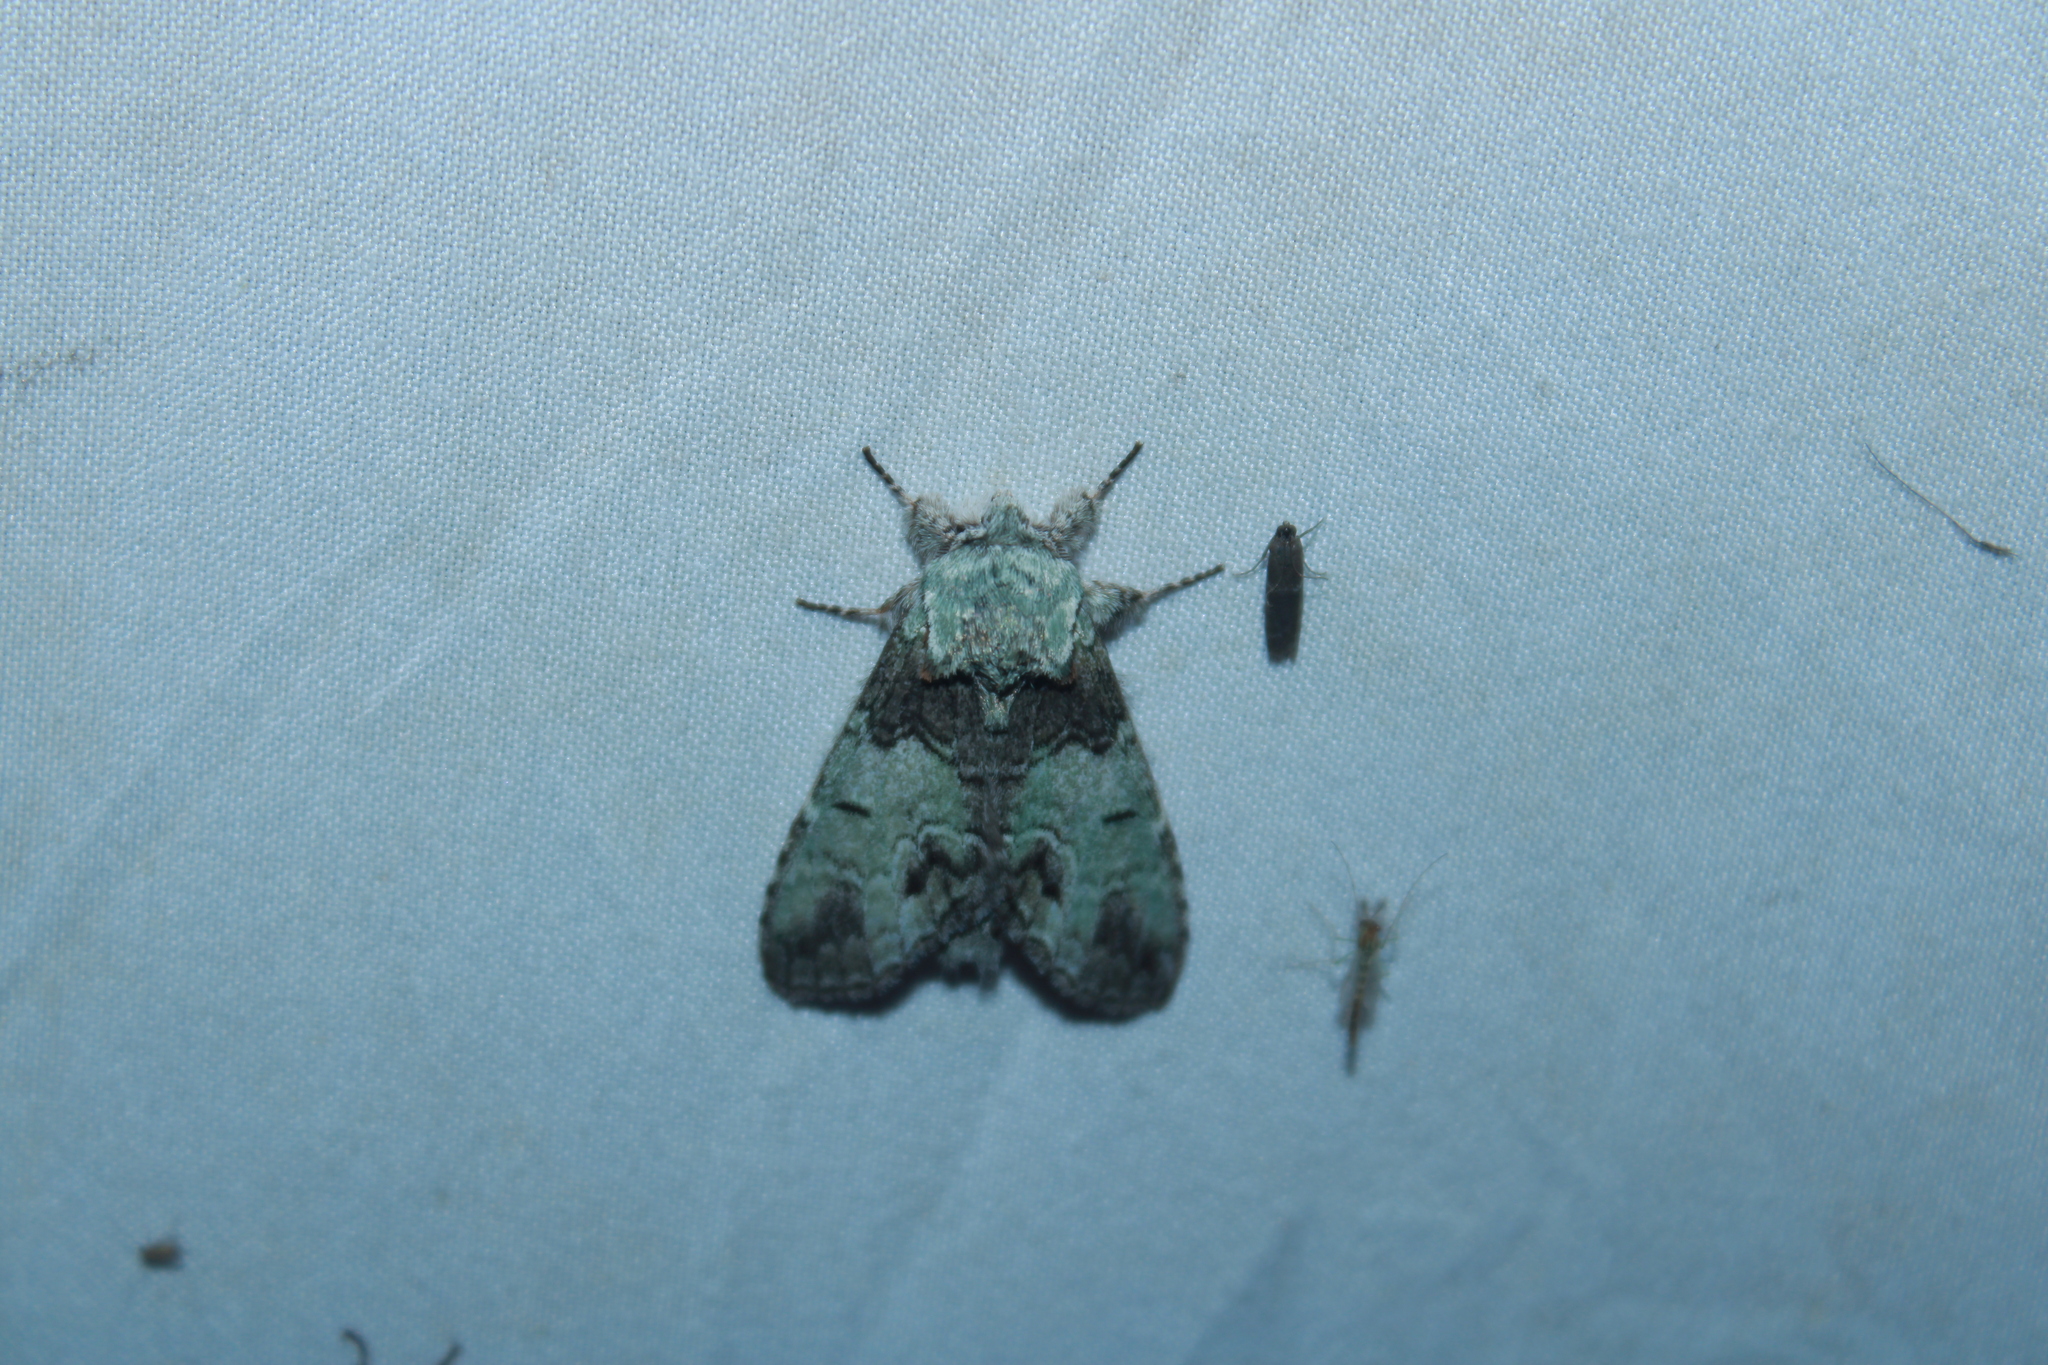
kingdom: Animalia
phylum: Arthropoda
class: Insecta
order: Lepidoptera
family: Notodontidae
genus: Macrurocampa
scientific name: Macrurocampa marthesia
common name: Mottled prominent
